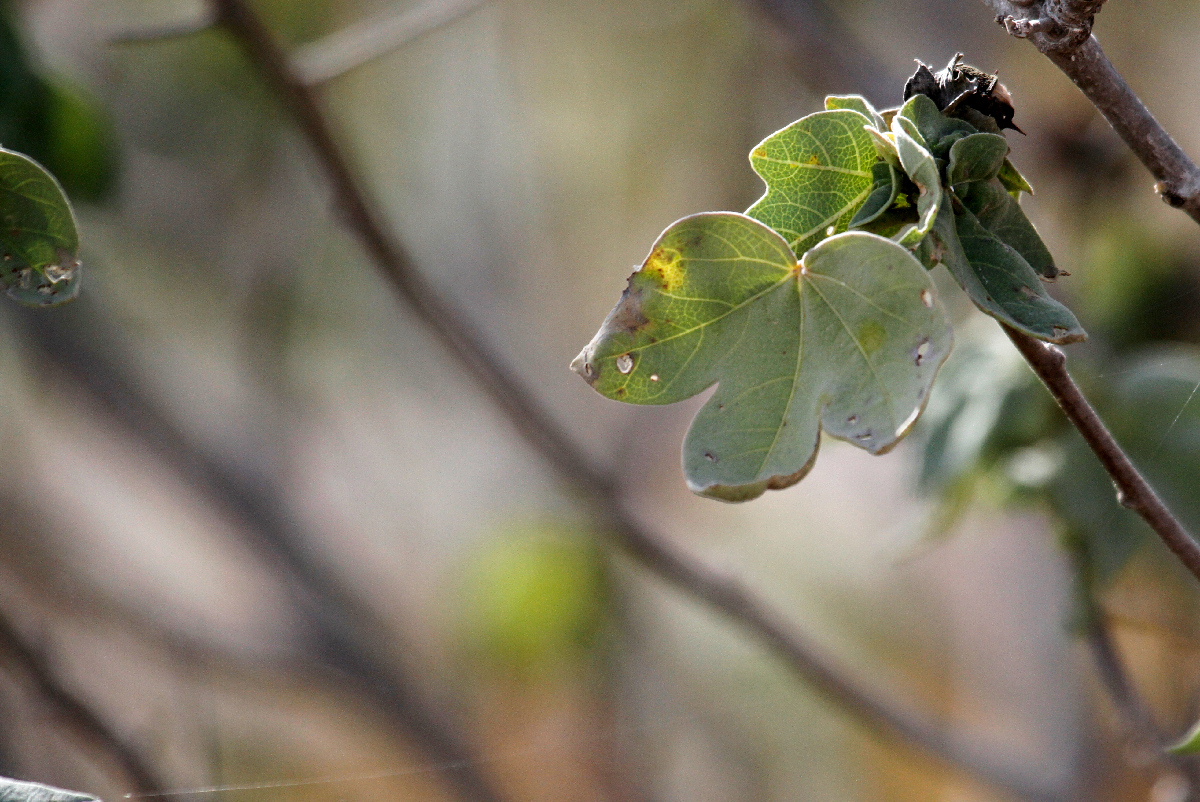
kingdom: Plantae
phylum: Tracheophyta
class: Magnoliopsida
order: Malvales
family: Malvaceae
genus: Gossypium
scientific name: Gossypium tomentosum
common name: Hawaiian cotton
